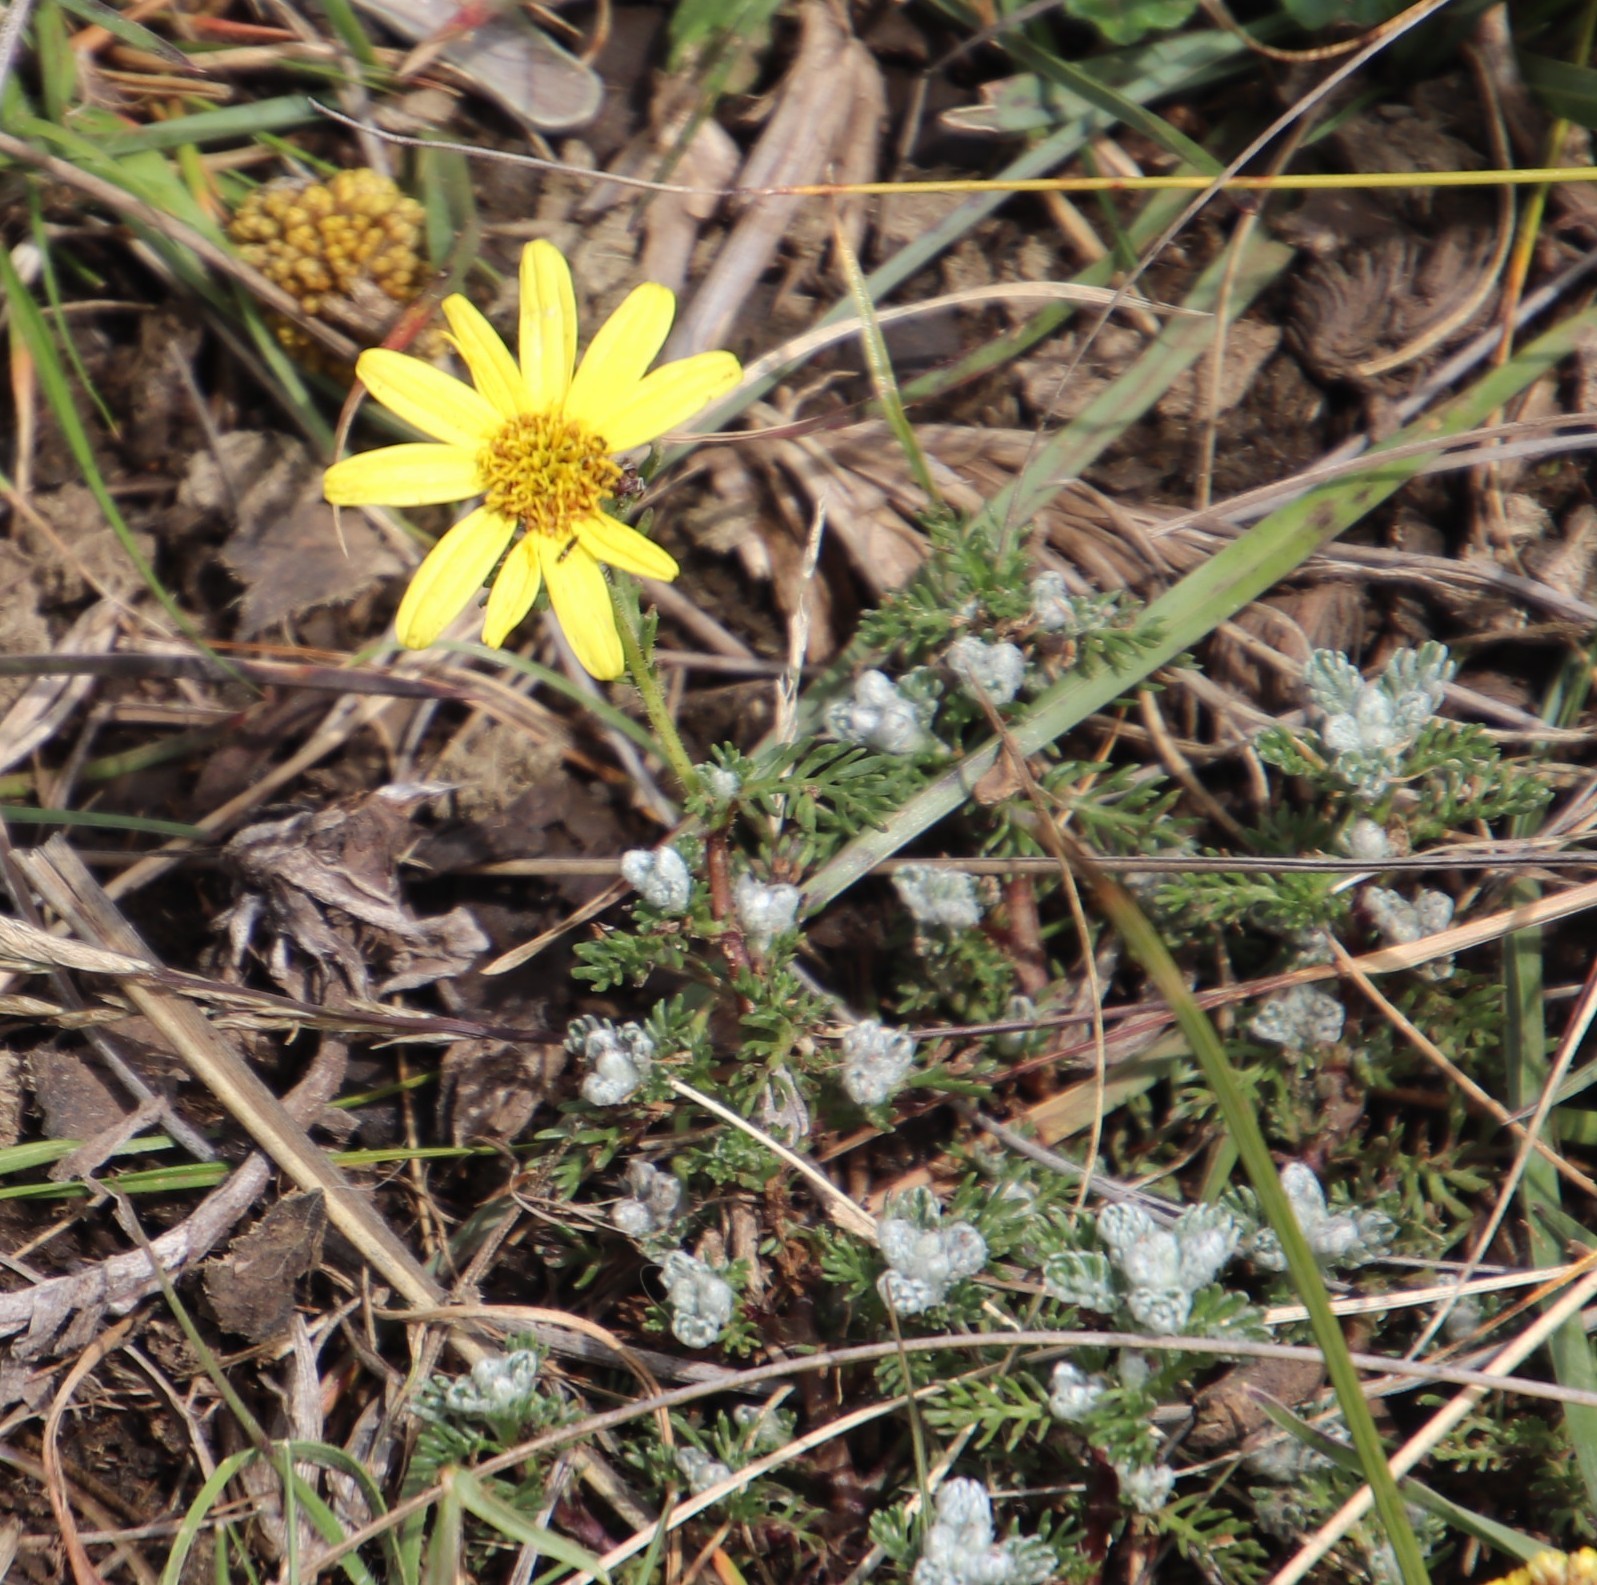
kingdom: Plantae
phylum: Tracheophyta
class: Magnoliopsida
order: Asterales
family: Asteraceae
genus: Senecio
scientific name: Senecio seminiveus
